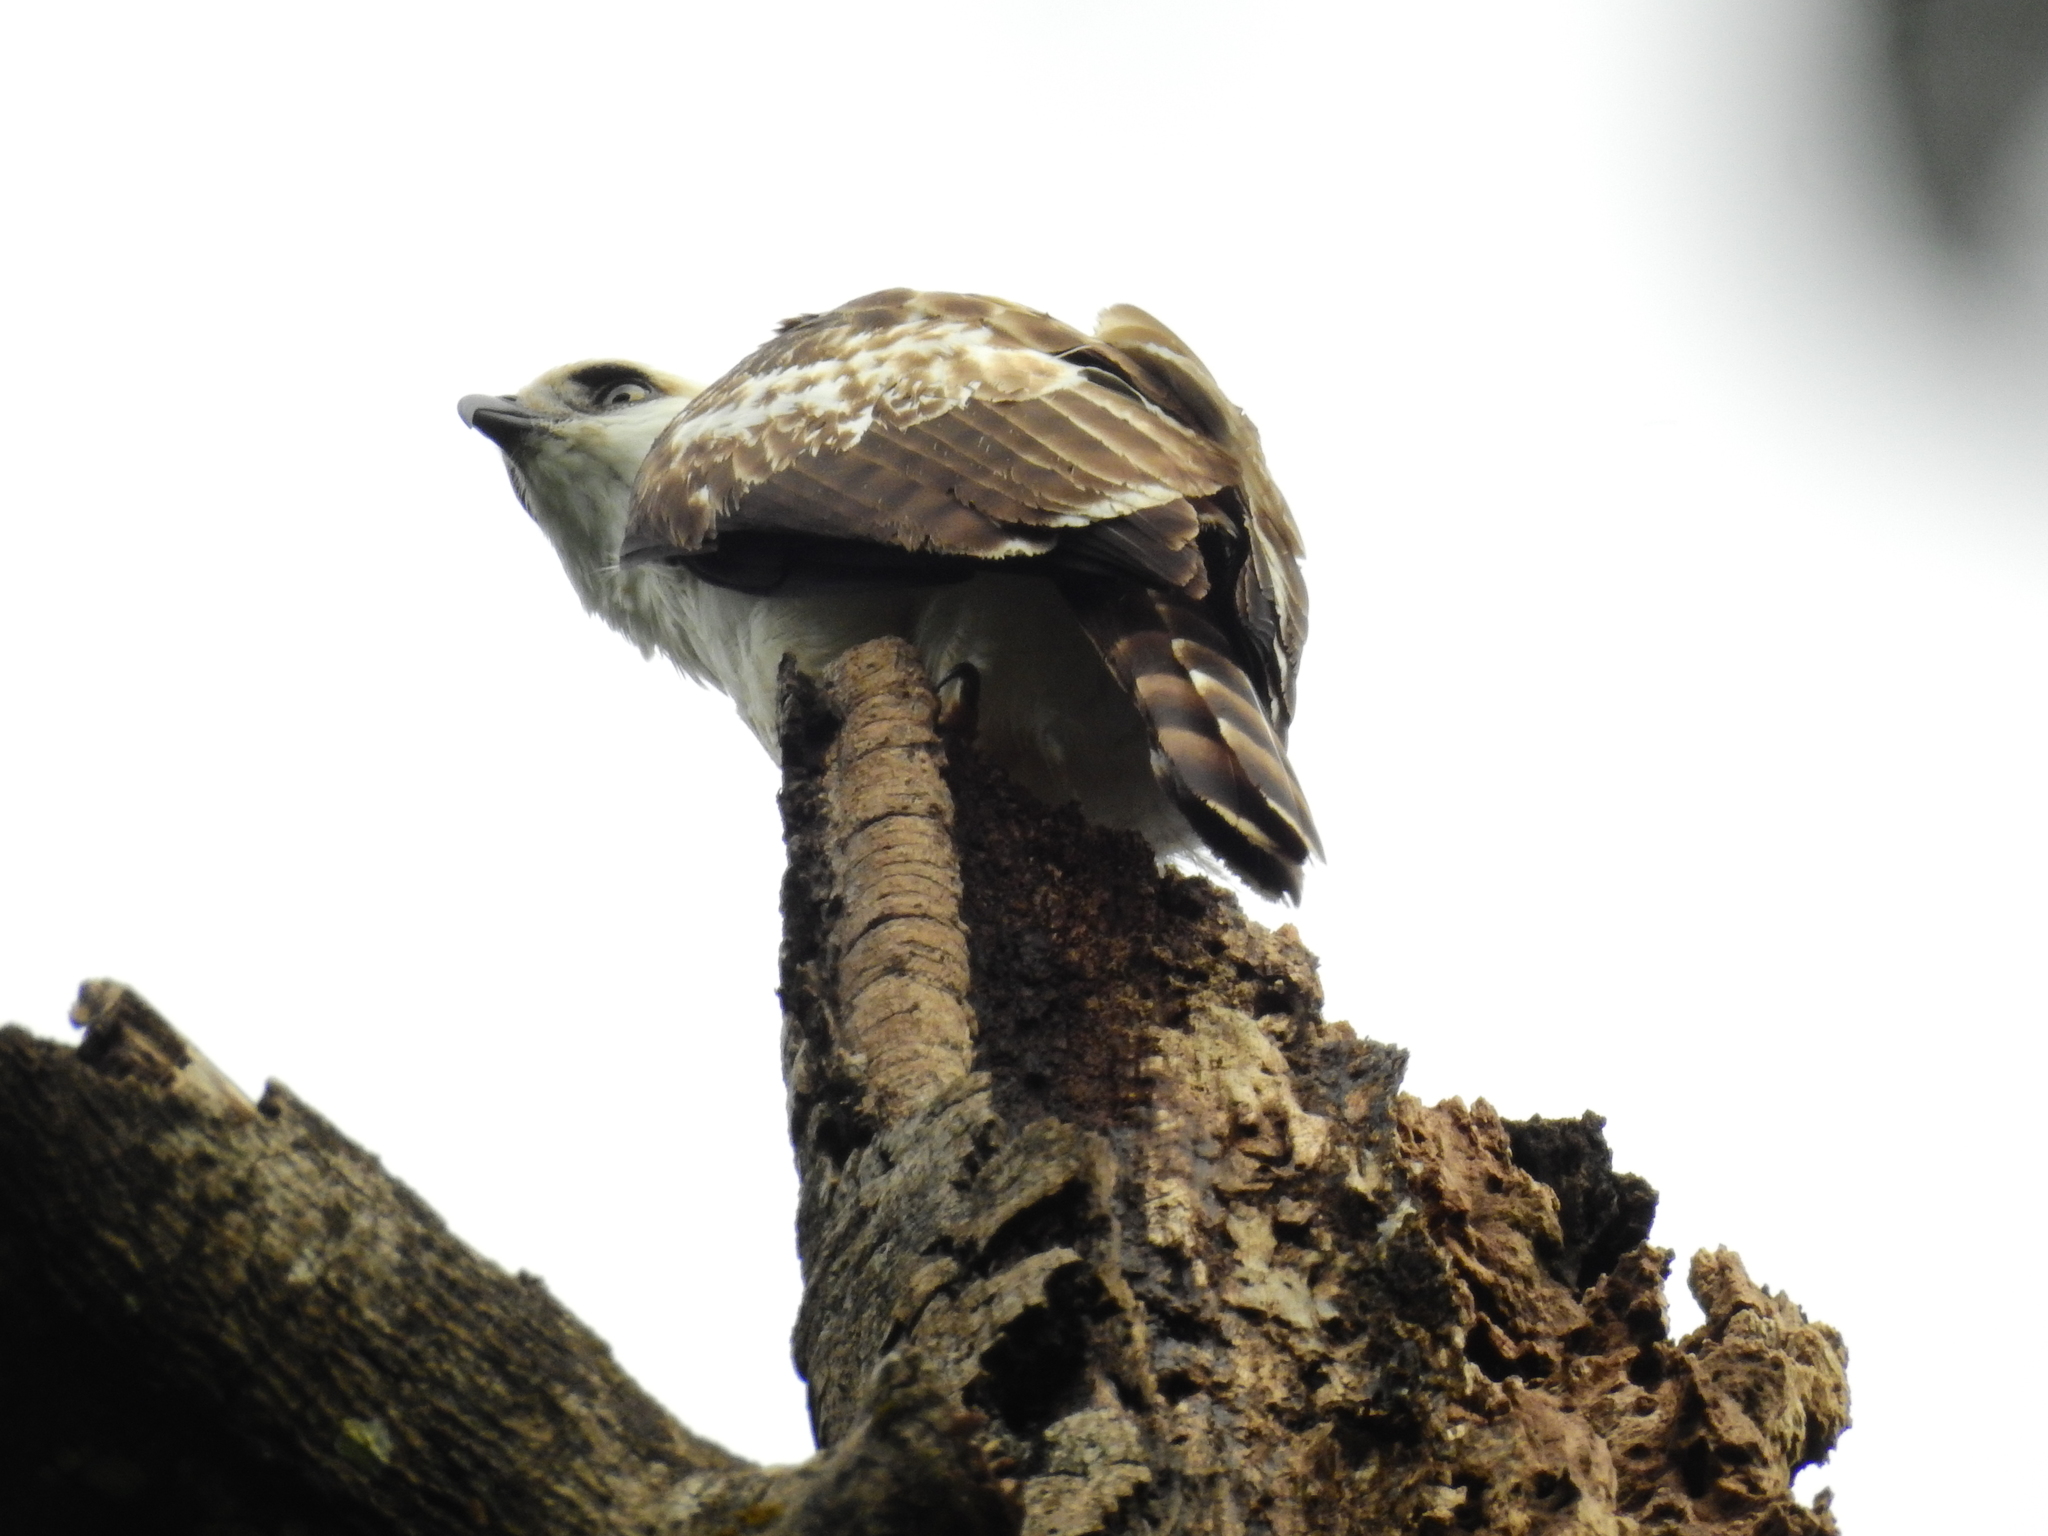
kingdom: Animalia
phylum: Chordata
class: Aves
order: Accipitriformes
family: Accipitridae
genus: Nisaetus
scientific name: Nisaetus lanceolatus
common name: Sulawesi hawk-eagle
